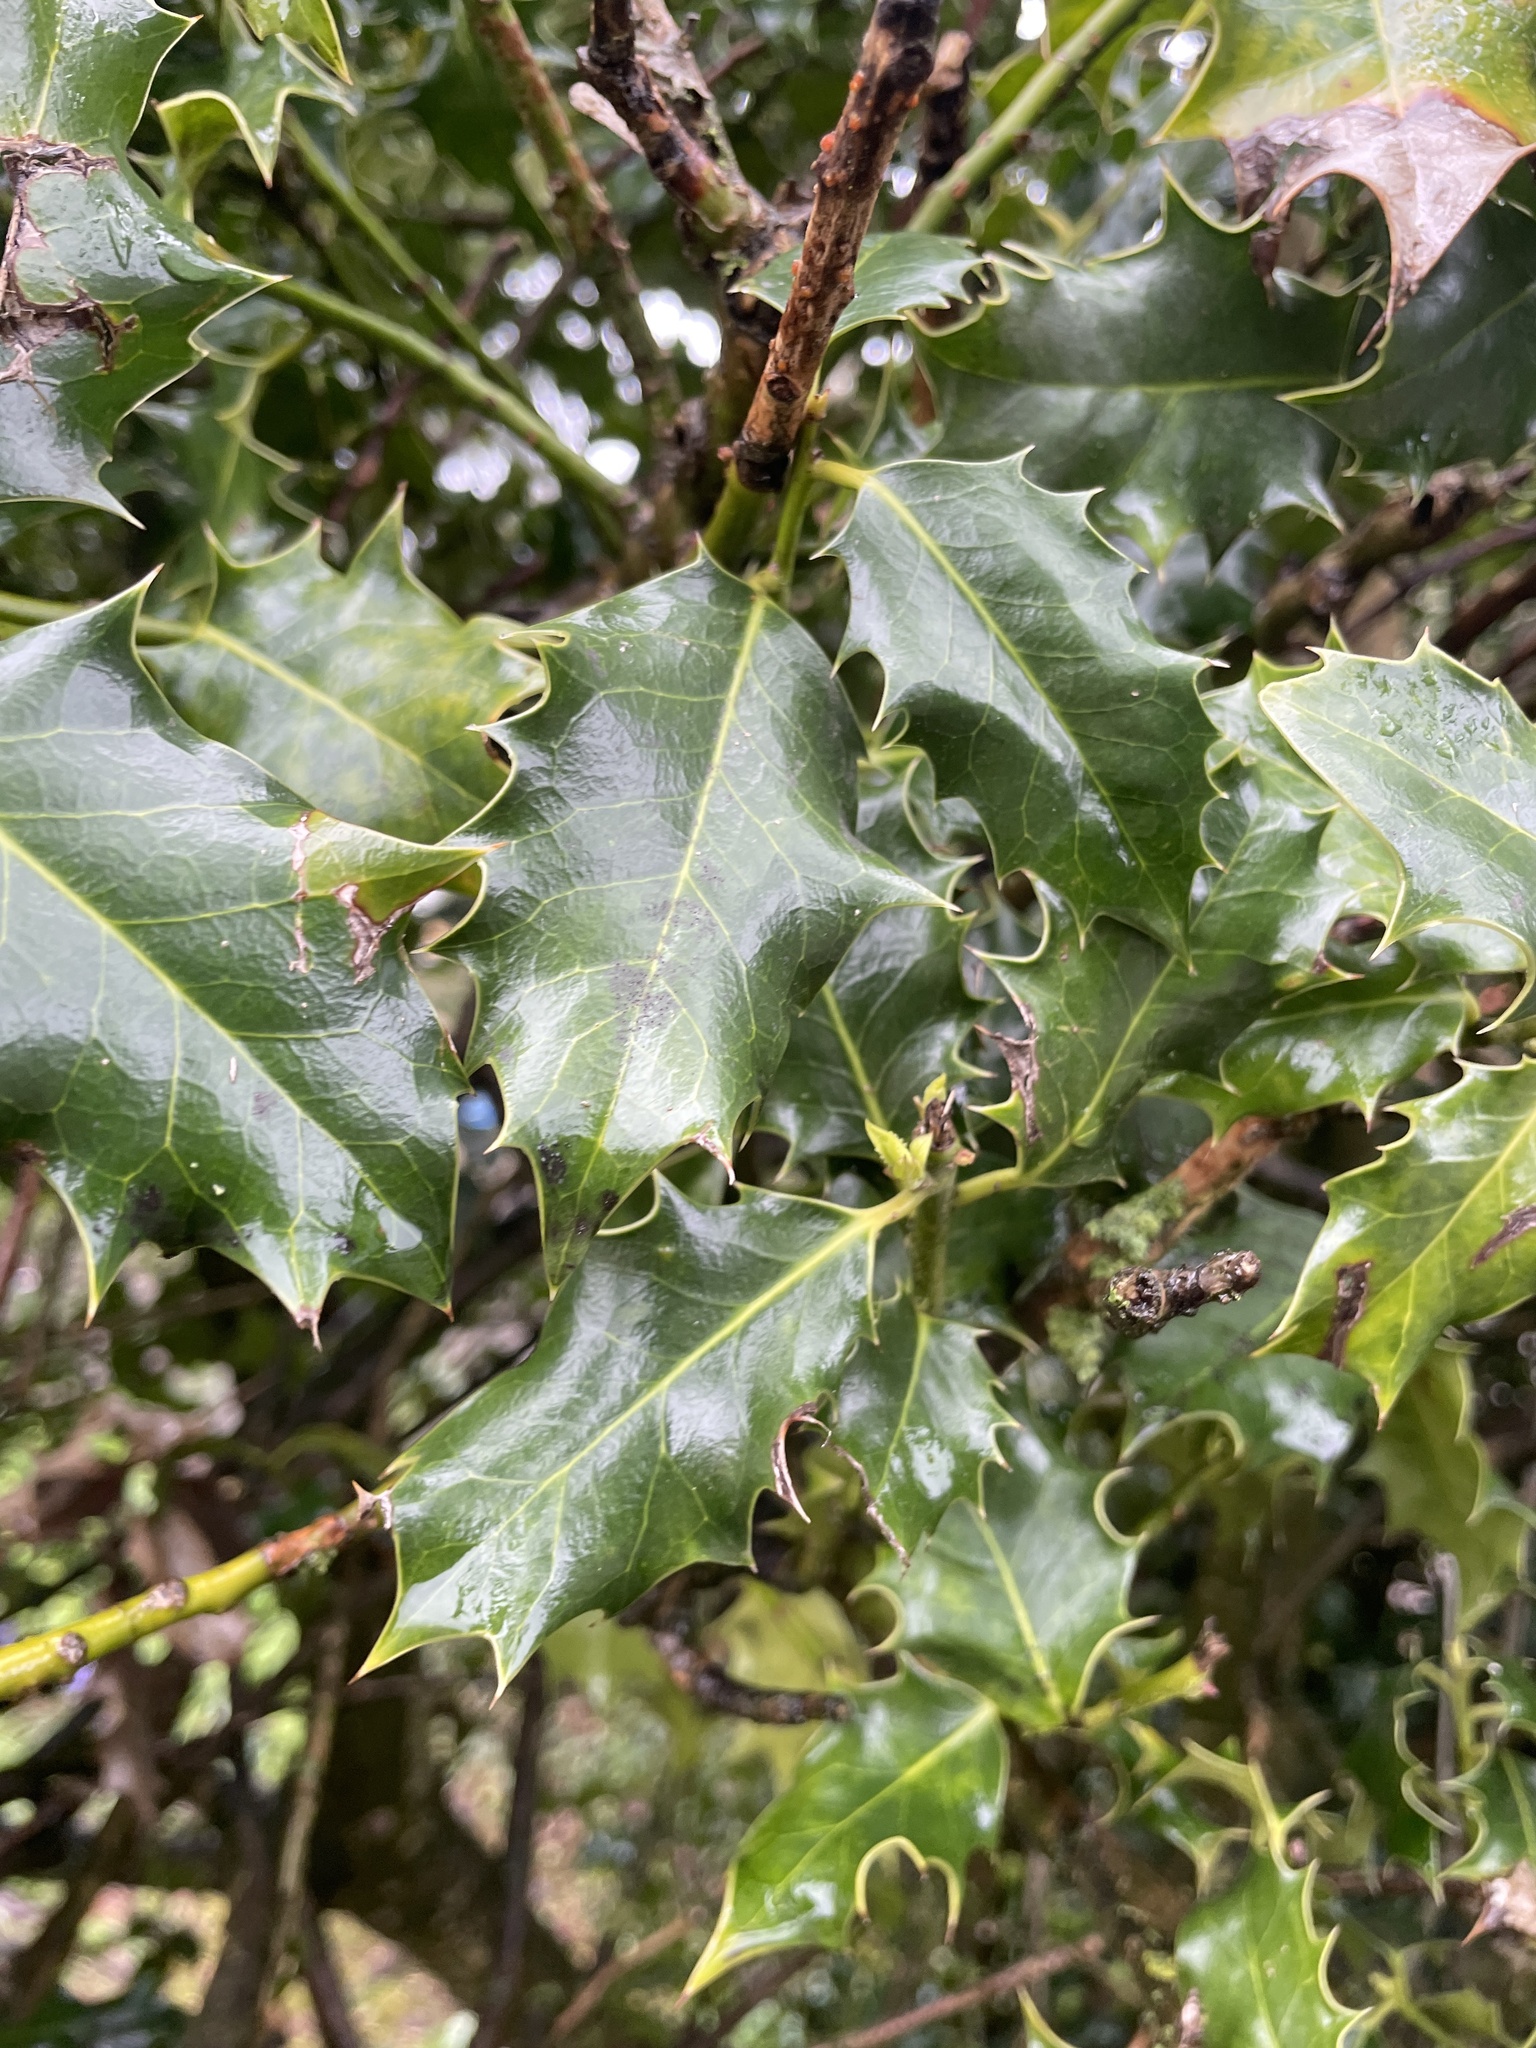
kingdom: Plantae
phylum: Tracheophyta
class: Magnoliopsida
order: Aquifoliales
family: Aquifoliaceae
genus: Ilex
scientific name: Ilex aquifolium
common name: English holly
